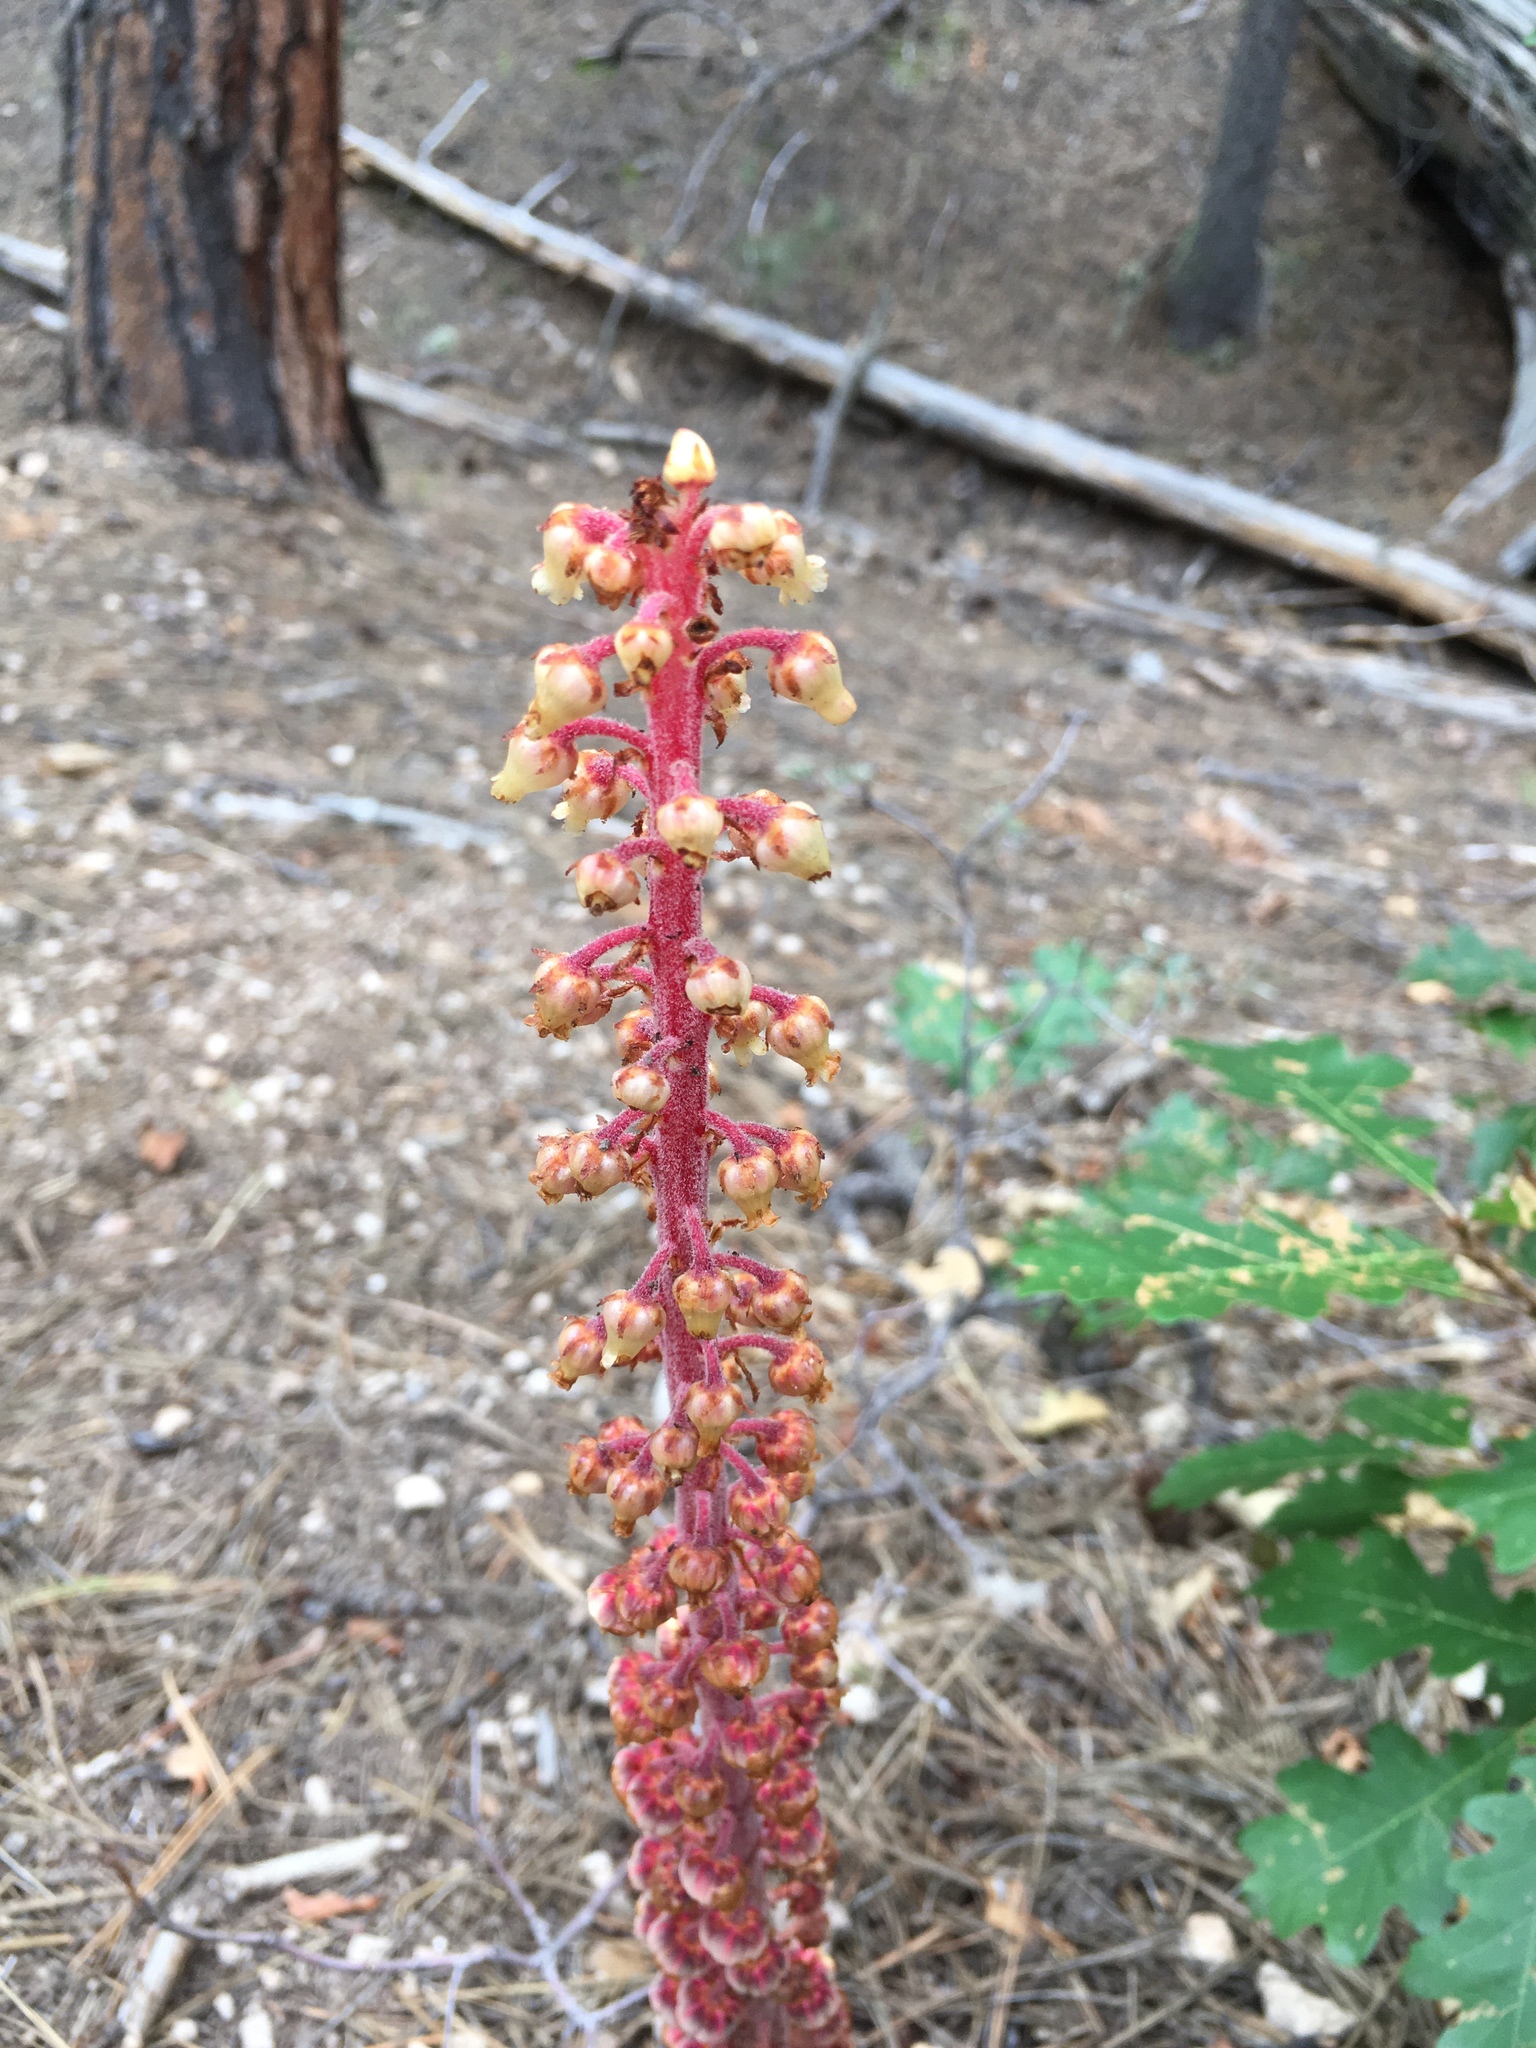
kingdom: Plantae
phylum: Tracheophyta
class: Magnoliopsida
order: Ericales
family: Ericaceae
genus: Pterospora
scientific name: Pterospora andromedea
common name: Giant bird's-nest
